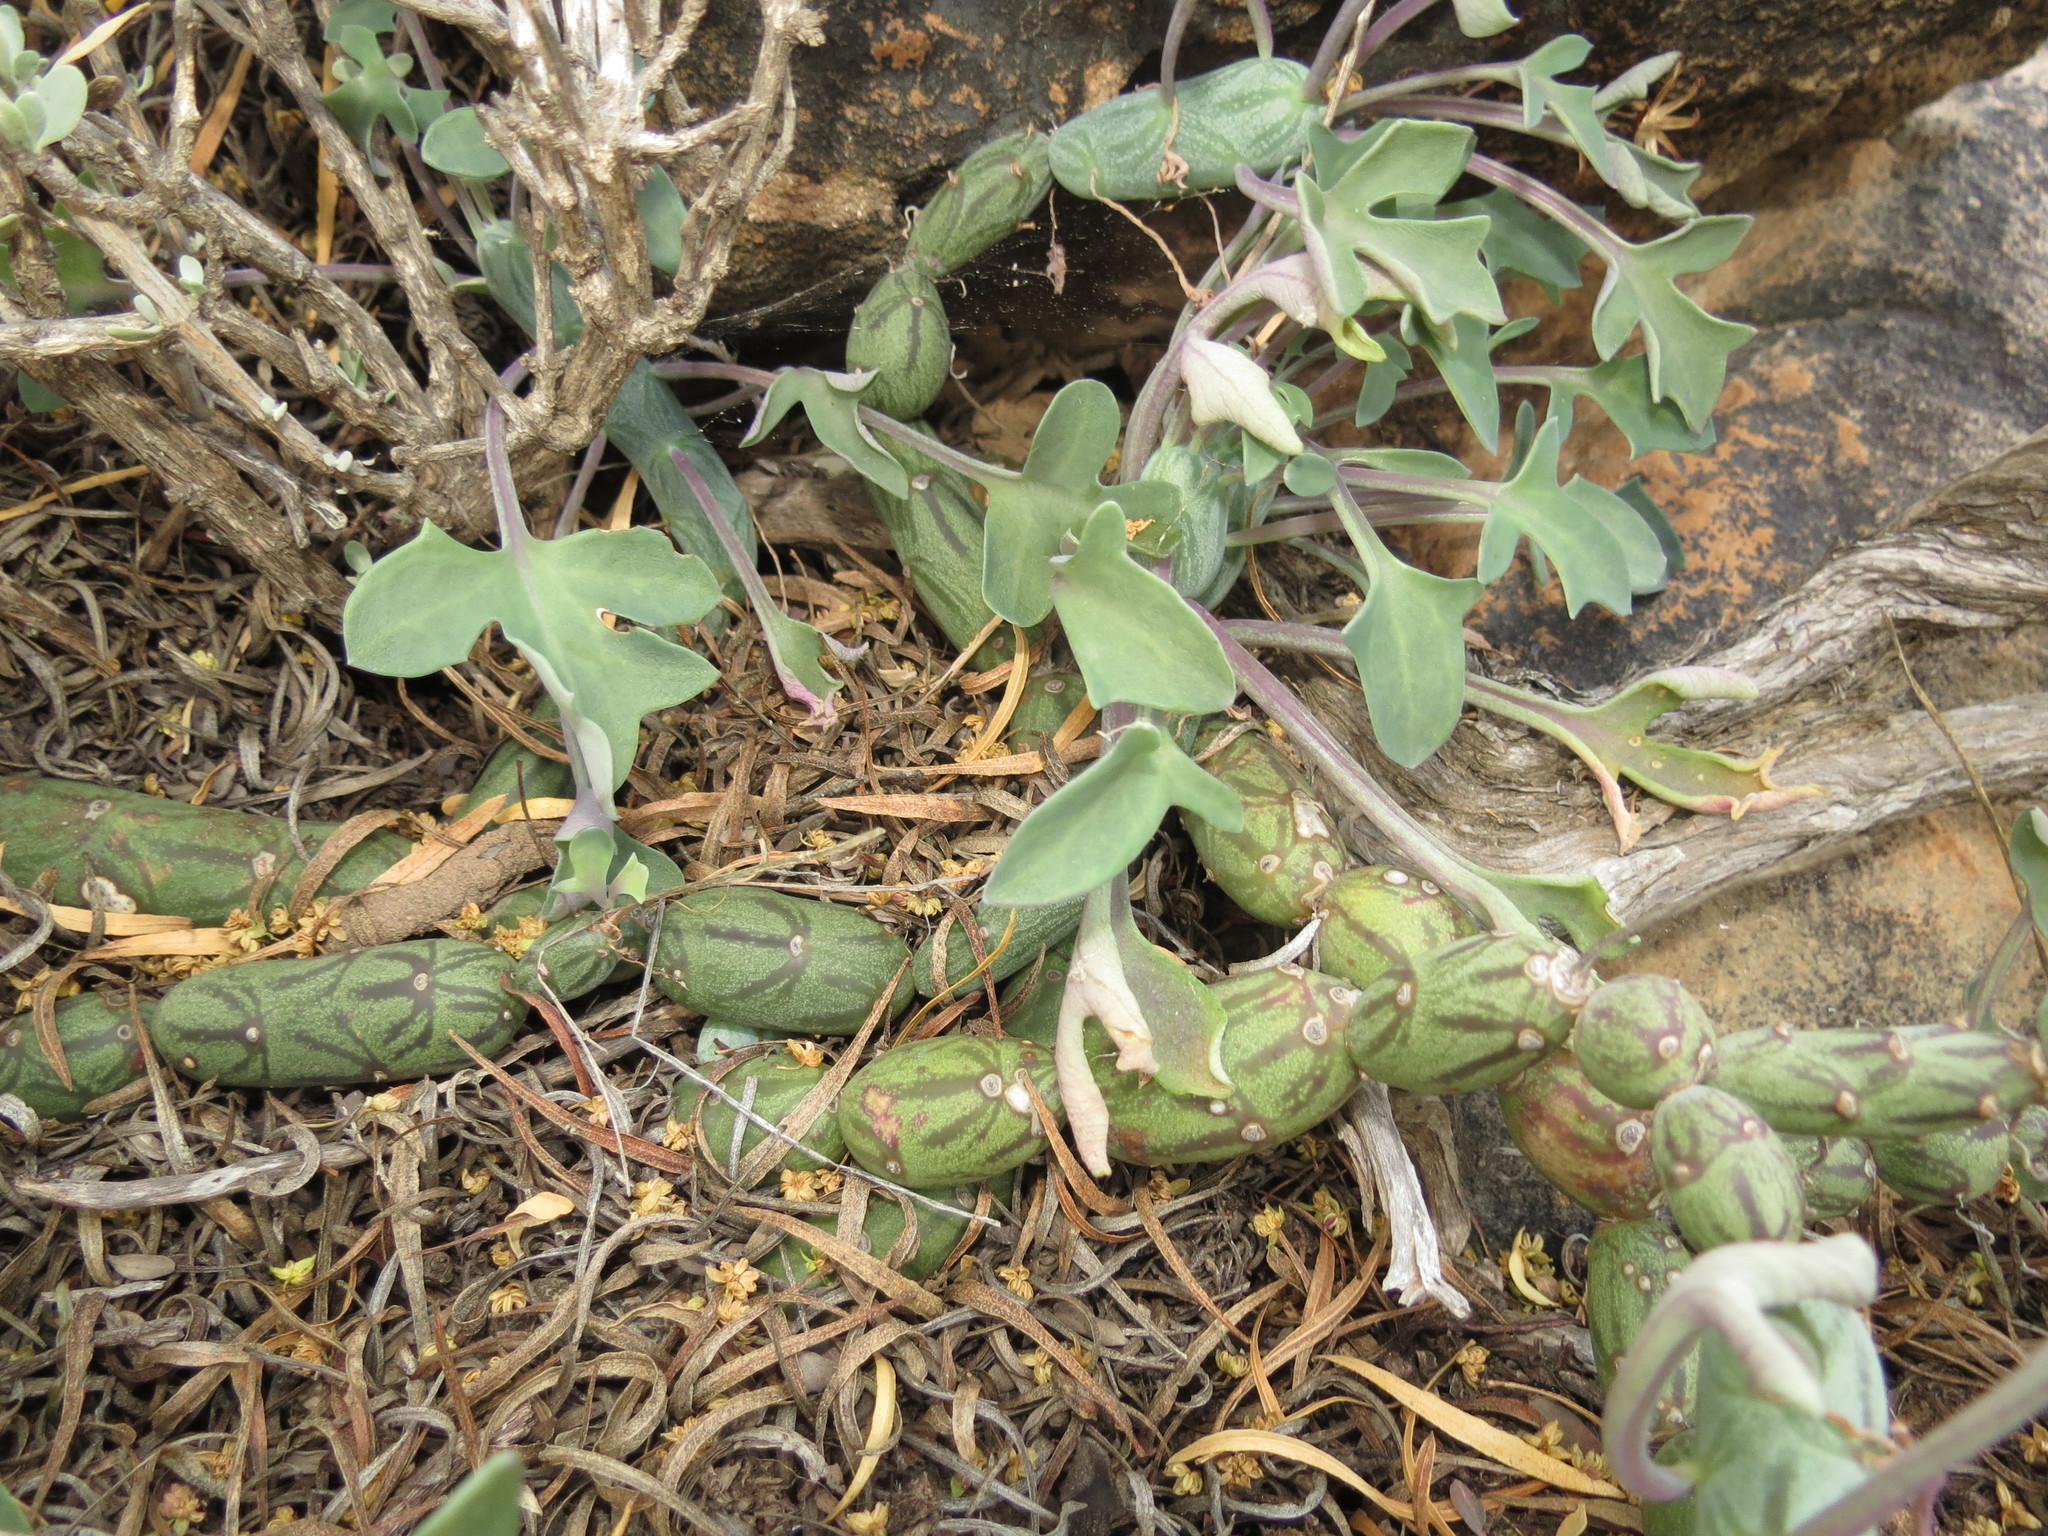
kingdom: Plantae
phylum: Tracheophyta
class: Magnoliopsida
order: Asterales
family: Asteraceae
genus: Curio
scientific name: Curio articulatus
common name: Candleplant
